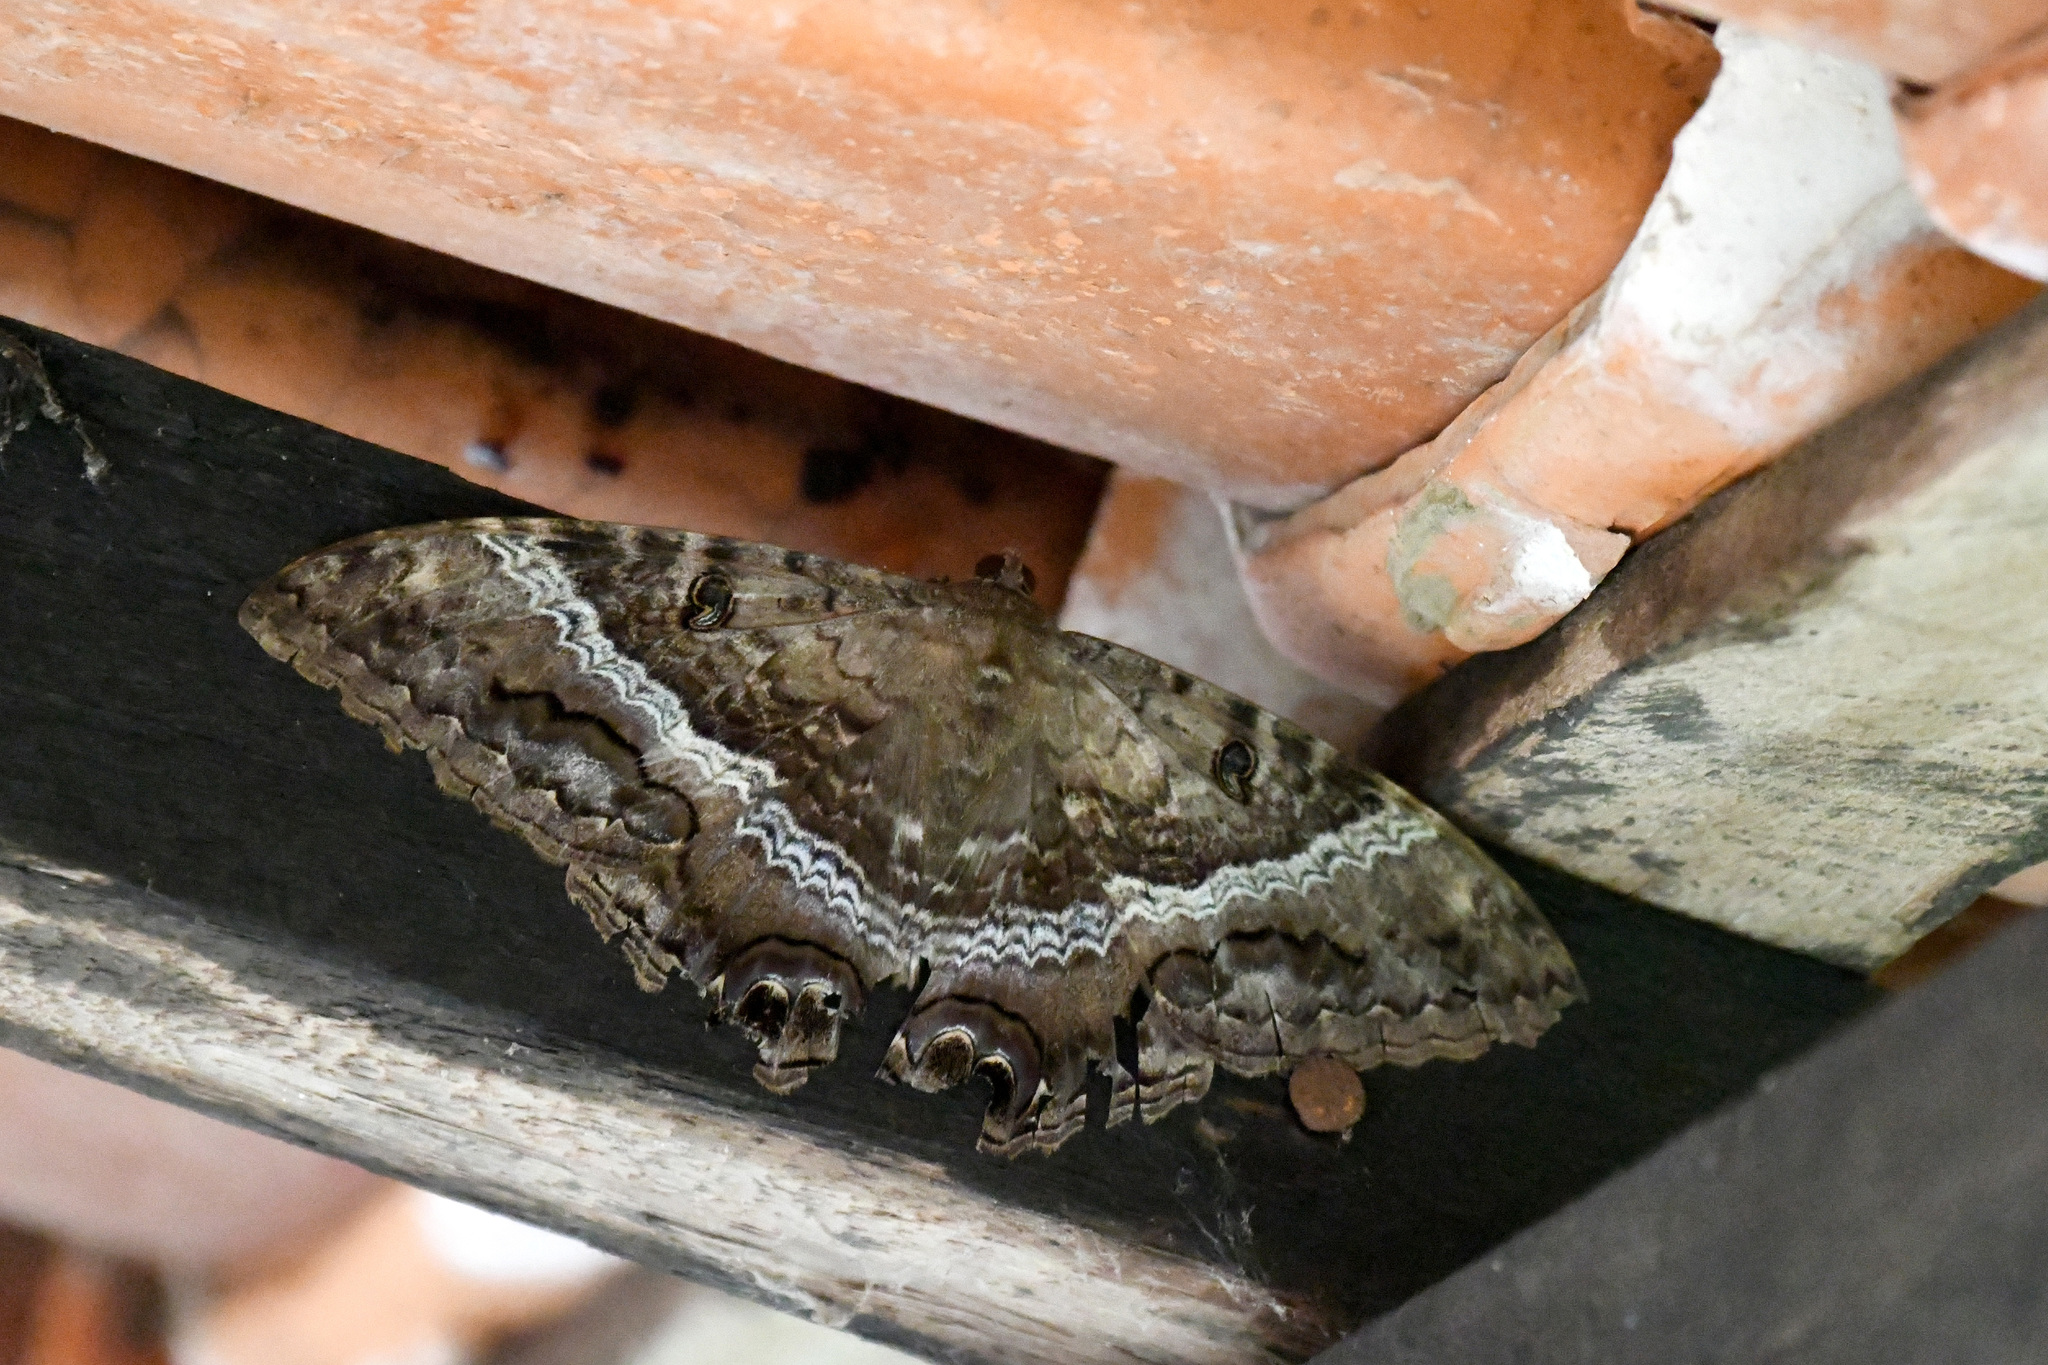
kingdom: Animalia
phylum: Arthropoda
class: Insecta
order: Lepidoptera
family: Erebidae
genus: Ascalapha
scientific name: Ascalapha odorata
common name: Black witch
